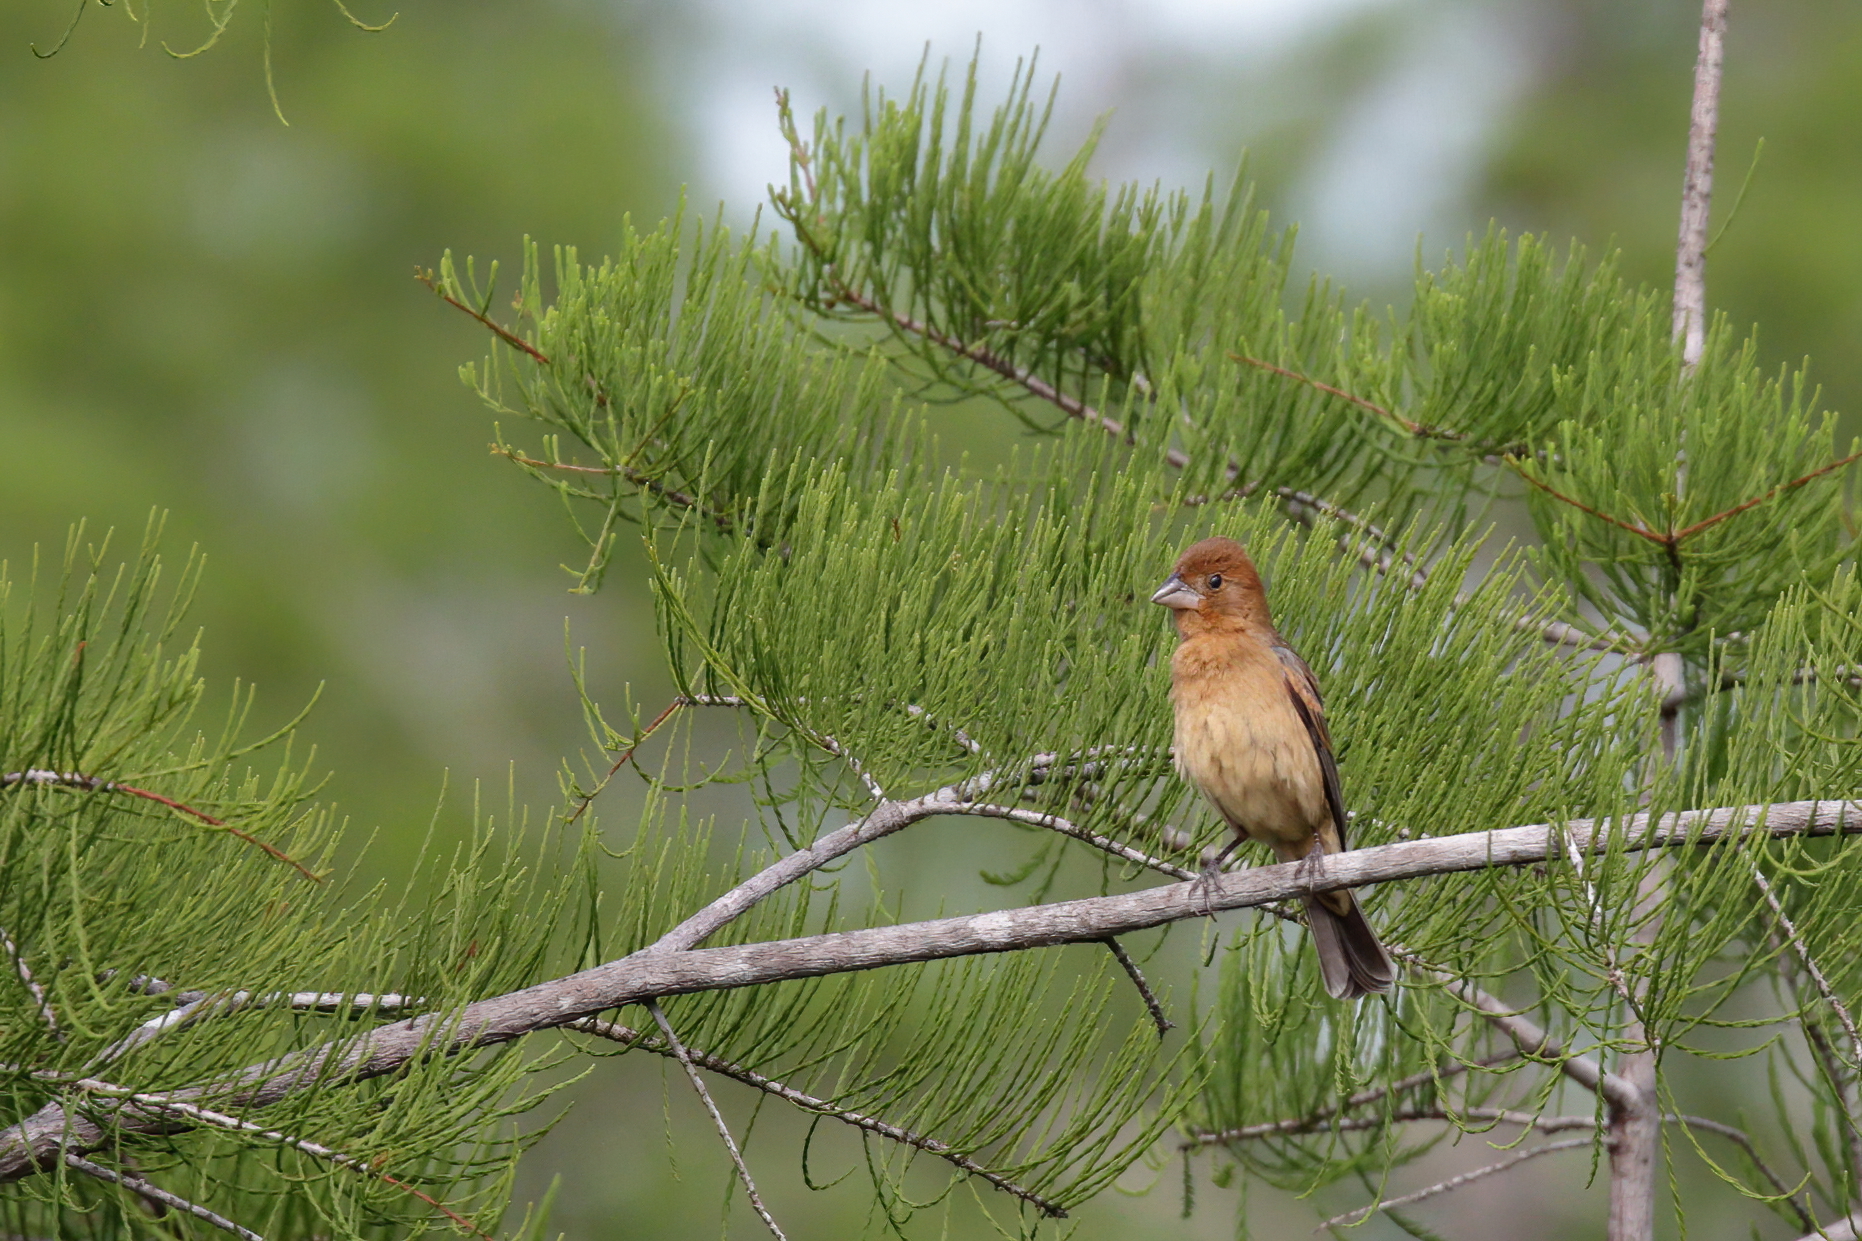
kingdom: Animalia
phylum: Chordata
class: Aves
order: Passeriformes
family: Cardinalidae
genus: Passerina
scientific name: Passerina caerulea
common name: Blue grosbeak
